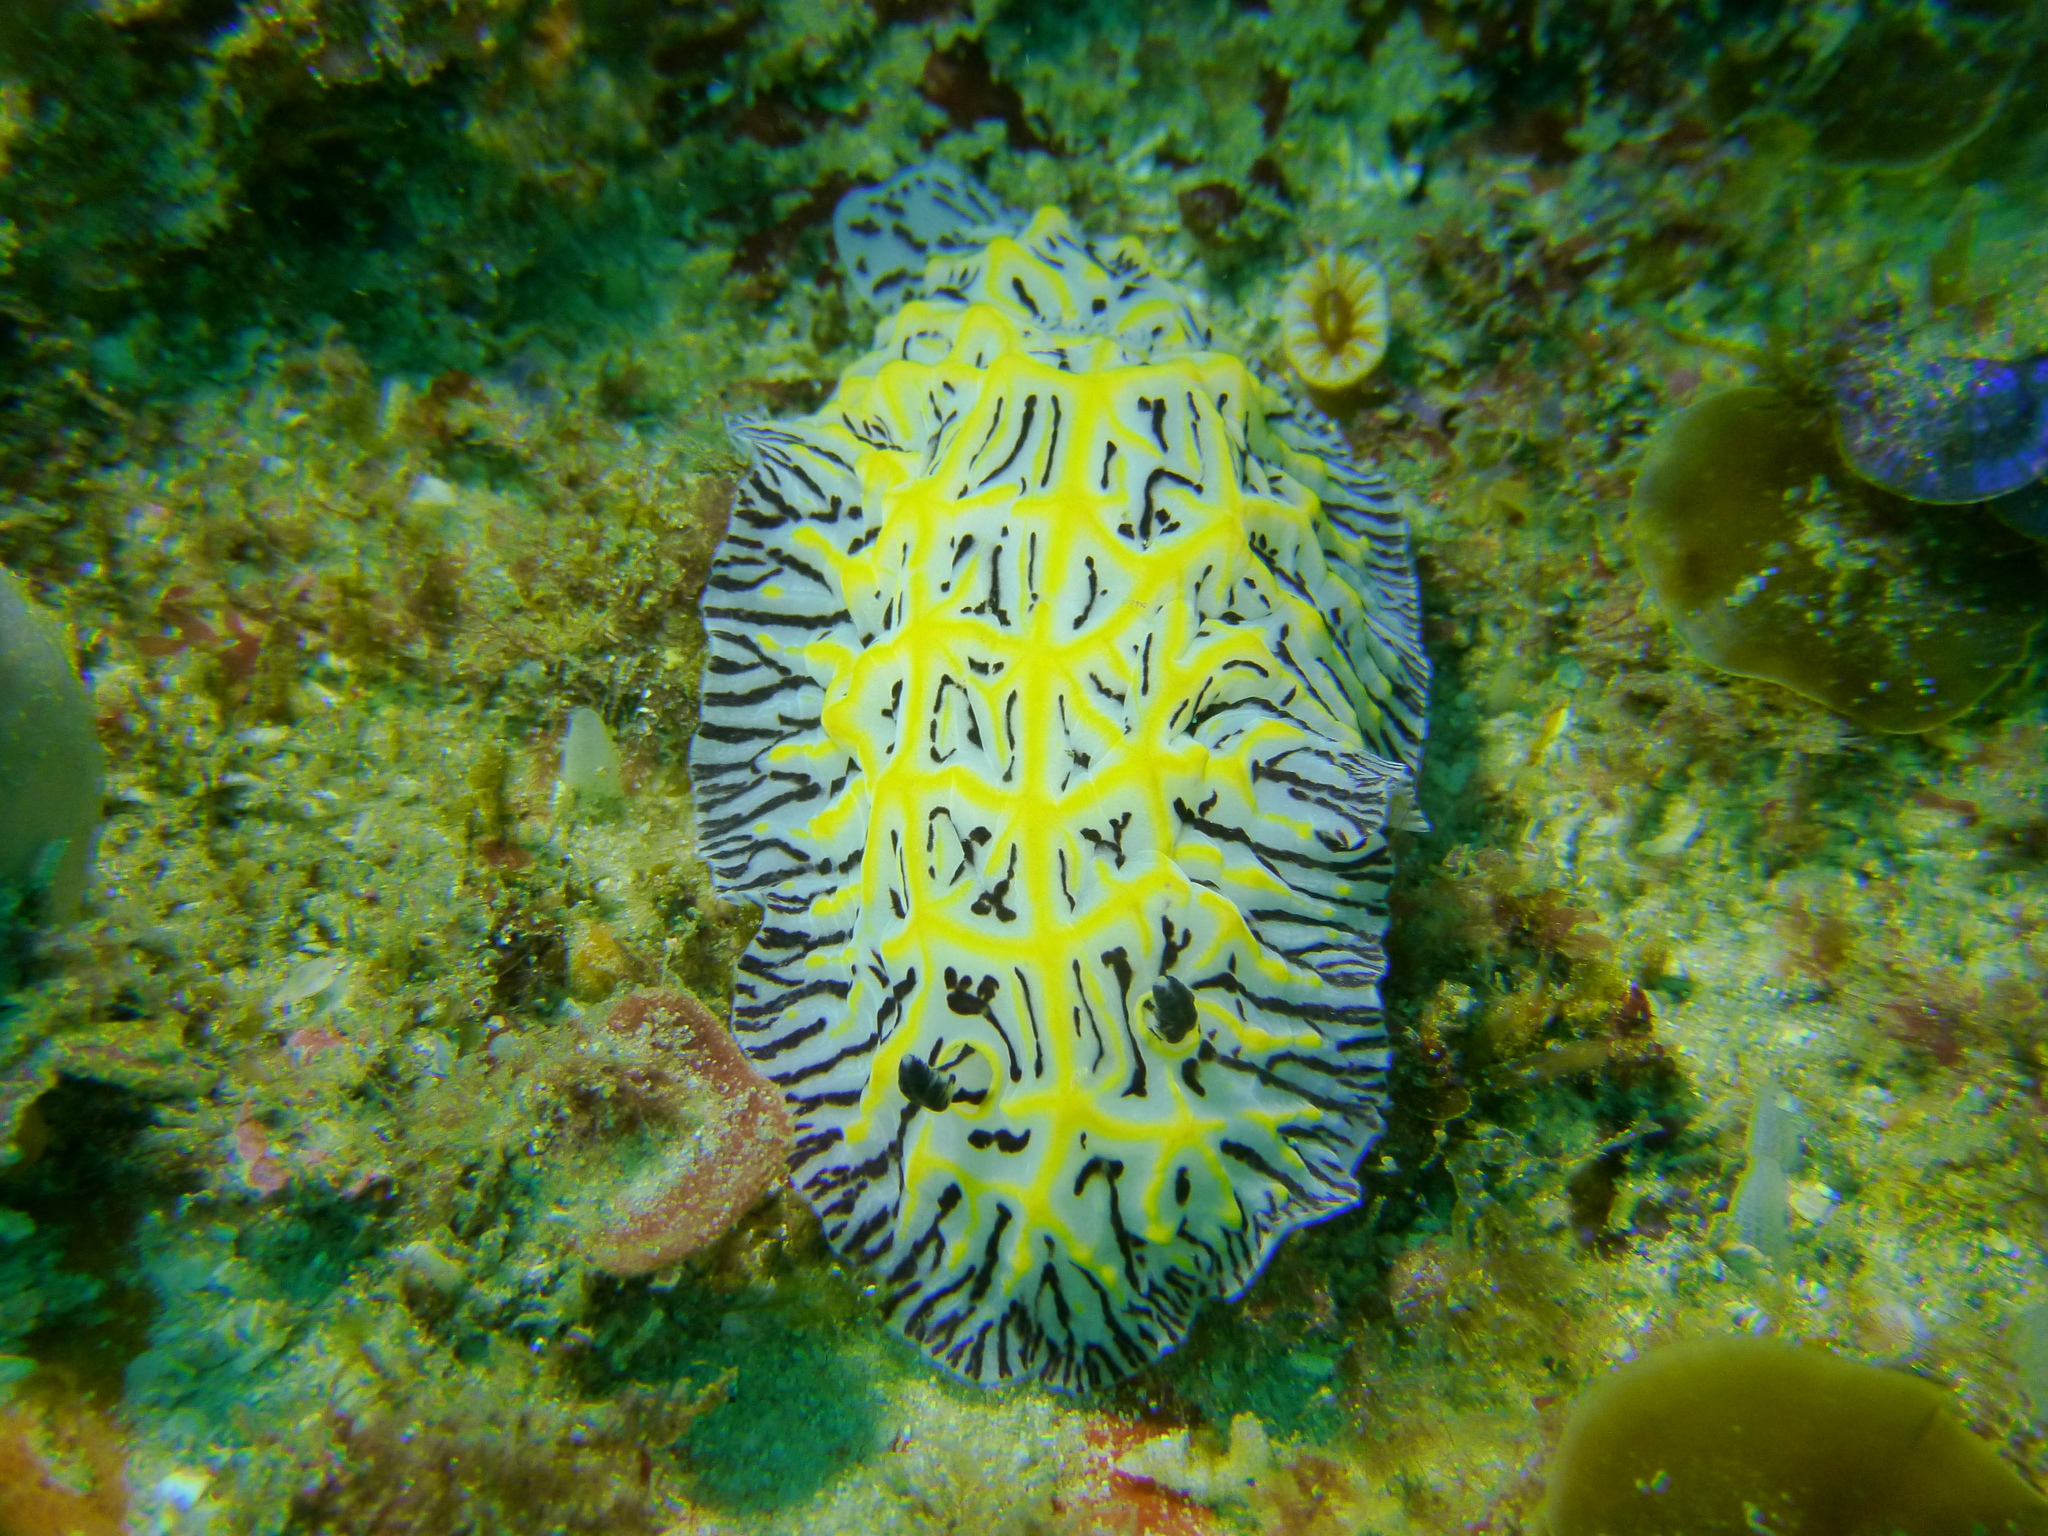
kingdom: Animalia
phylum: Mollusca
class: Gastropoda
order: Nudibranchia
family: Discodorididae
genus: Halgerda
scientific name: Halgerda willeyi
